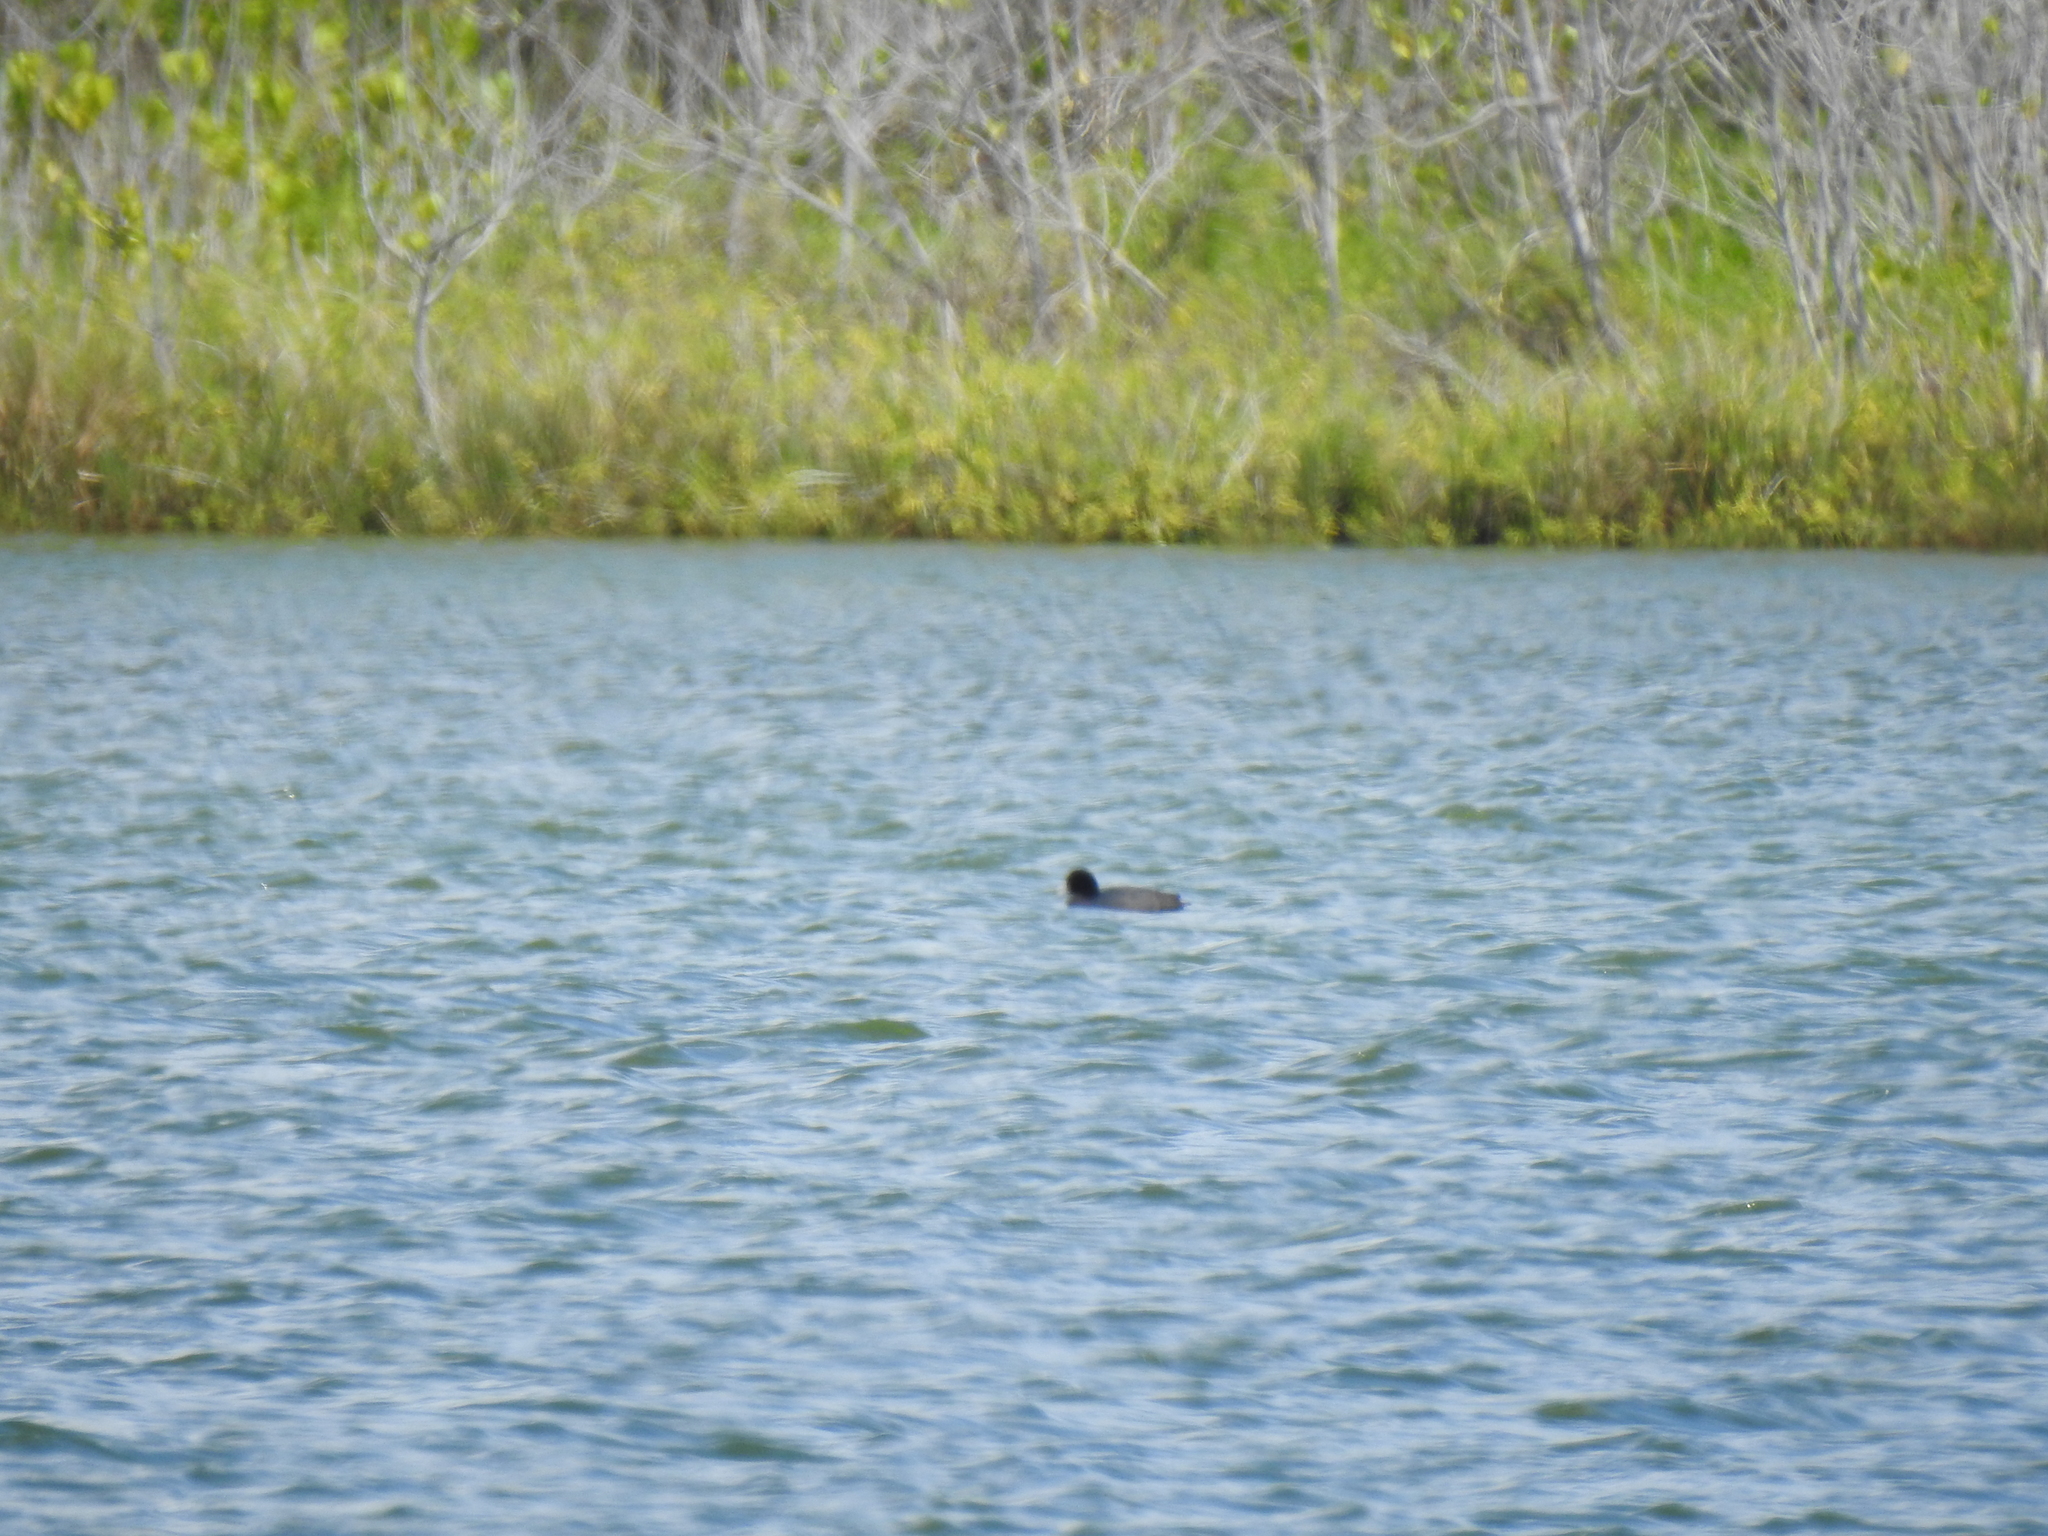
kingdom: Animalia
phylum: Chordata
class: Aves
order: Gruiformes
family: Rallidae
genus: Fulica
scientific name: Fulica alai
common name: Hawaiian coot
